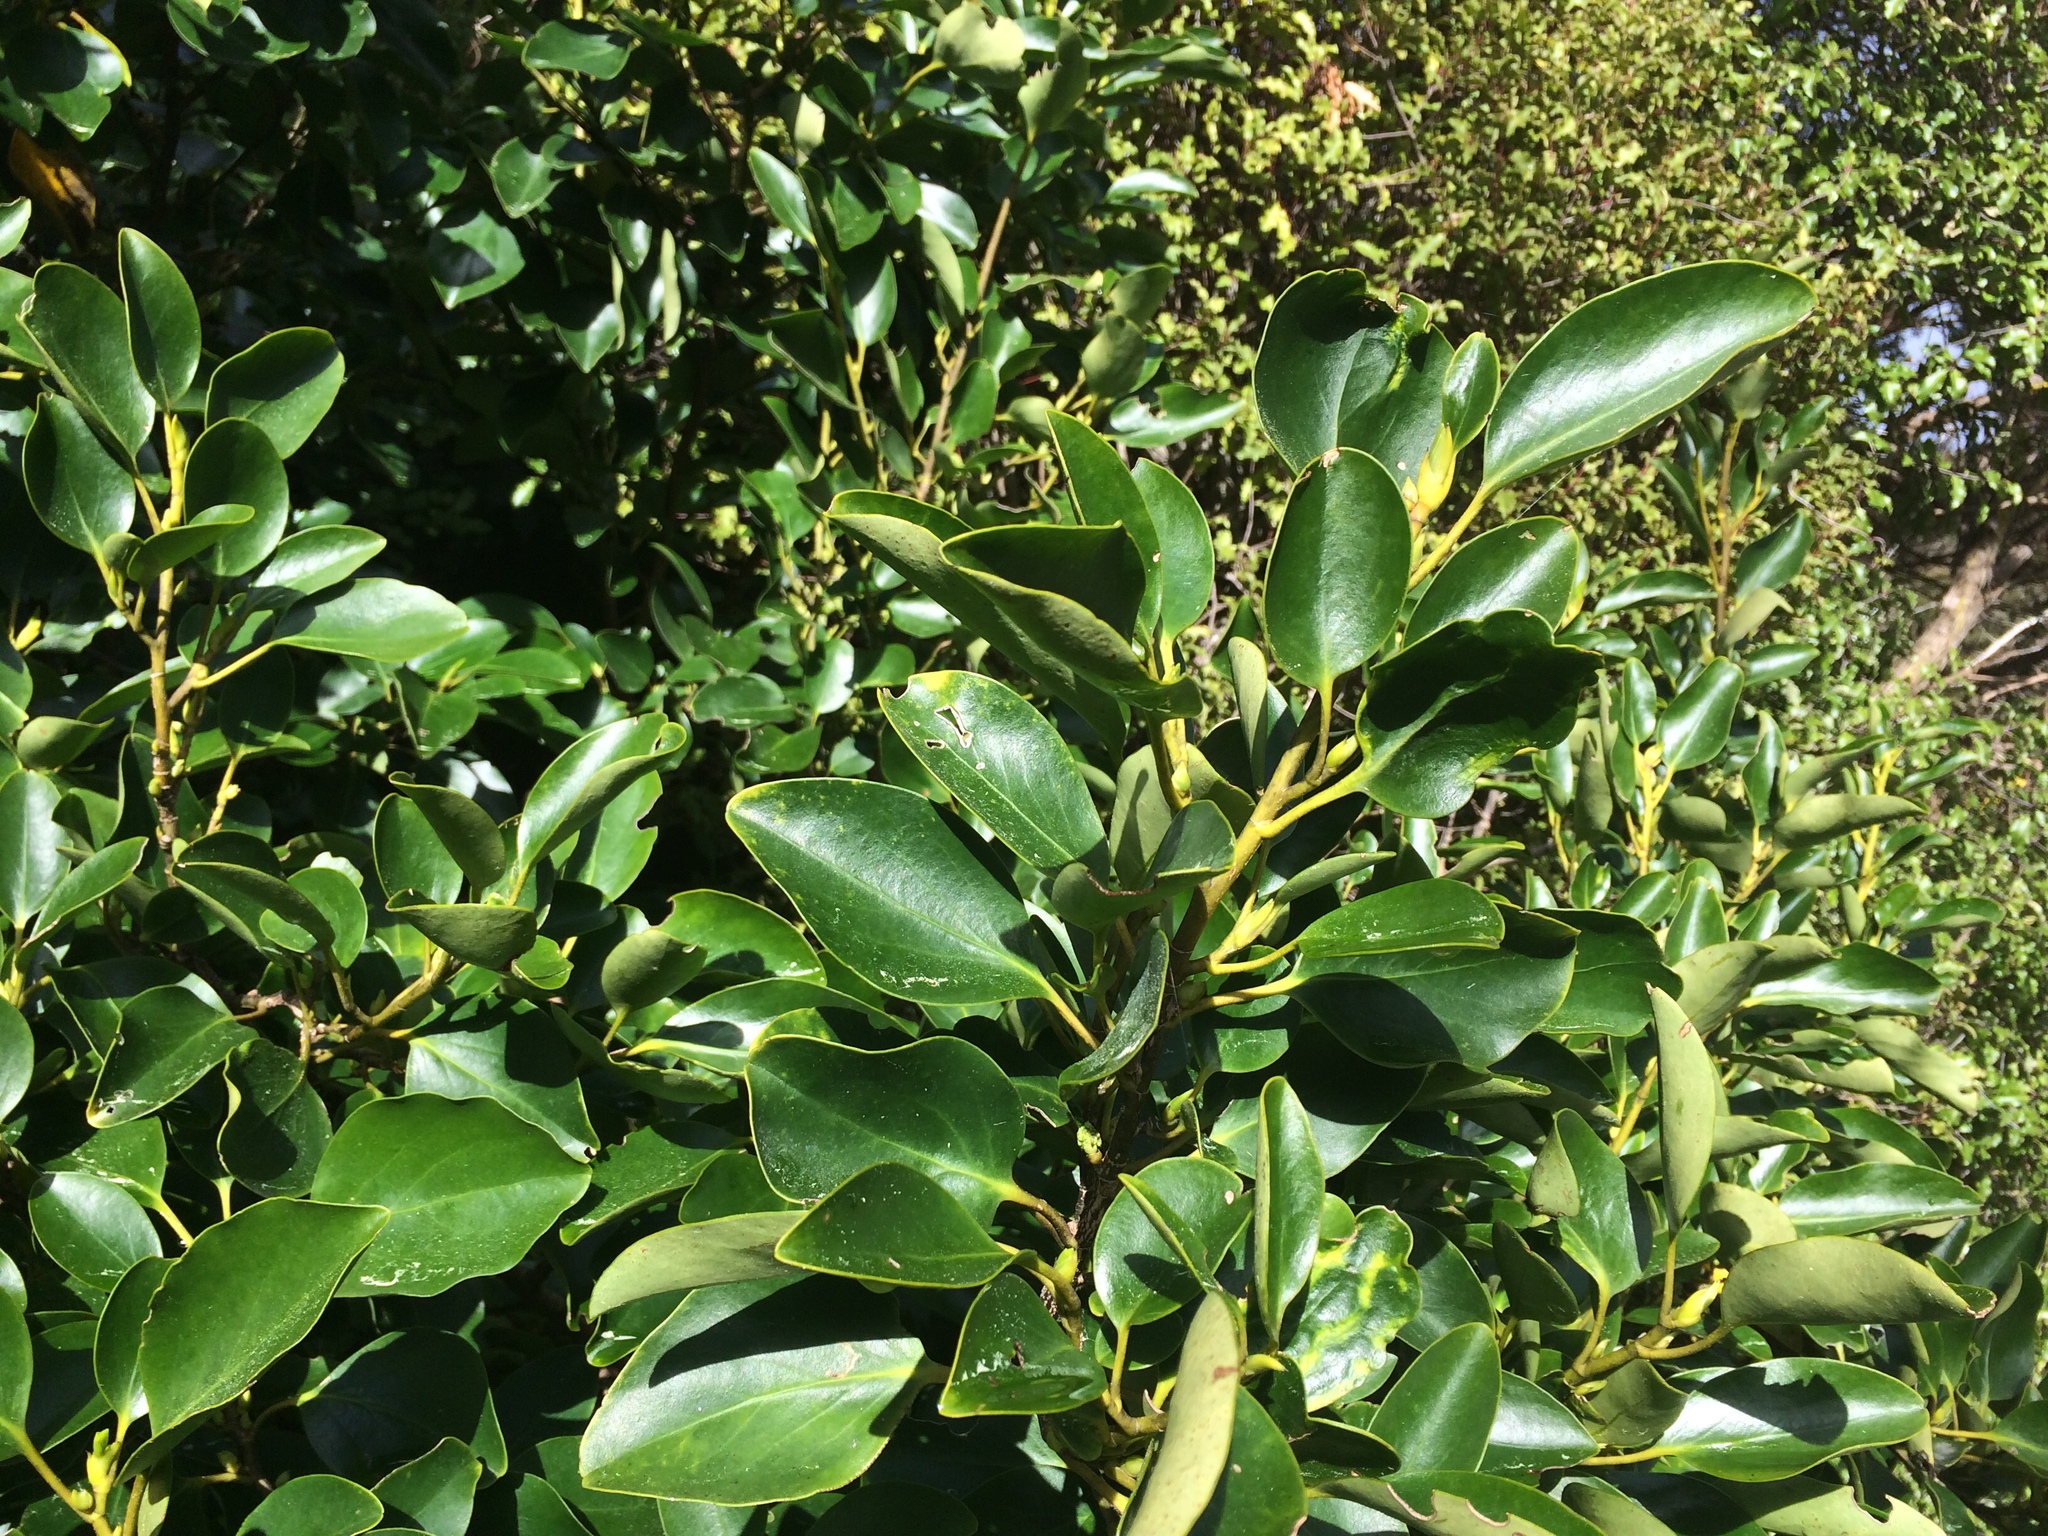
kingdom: Plantae
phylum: Tracheophyta
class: Magnoliopsida
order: Apiales
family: Griseliniaceae
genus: Griselinia
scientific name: Griselinia littoralis
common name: New zealand broadleaf
